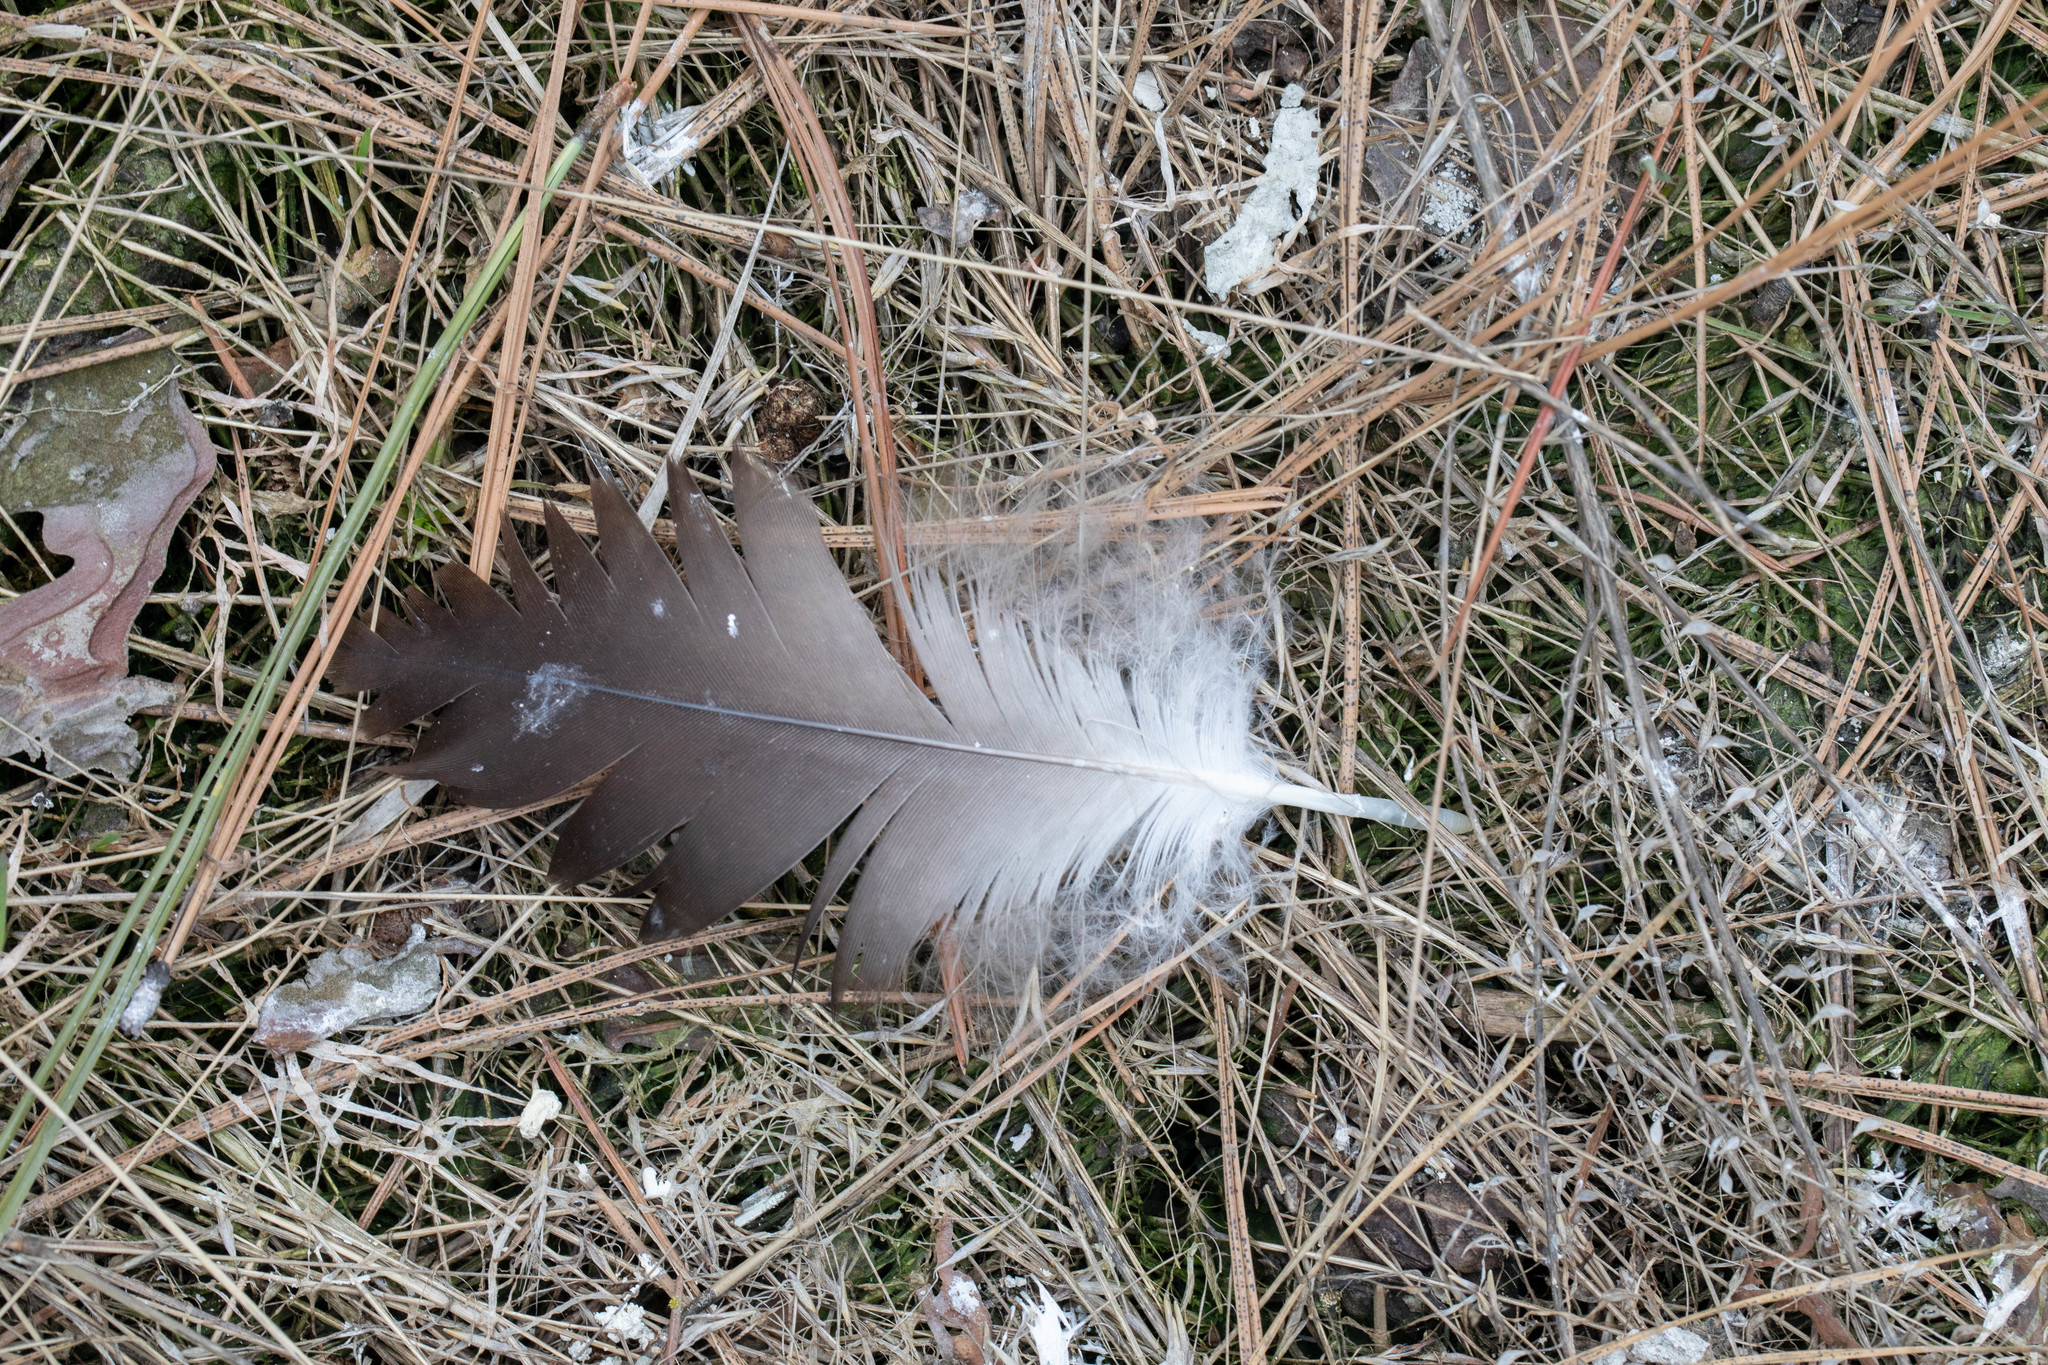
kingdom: Animalia
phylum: Chordata
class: Aves
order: Anseriformes
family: Anatidae
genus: Branta
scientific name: Branta canadensis
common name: Canada goose
